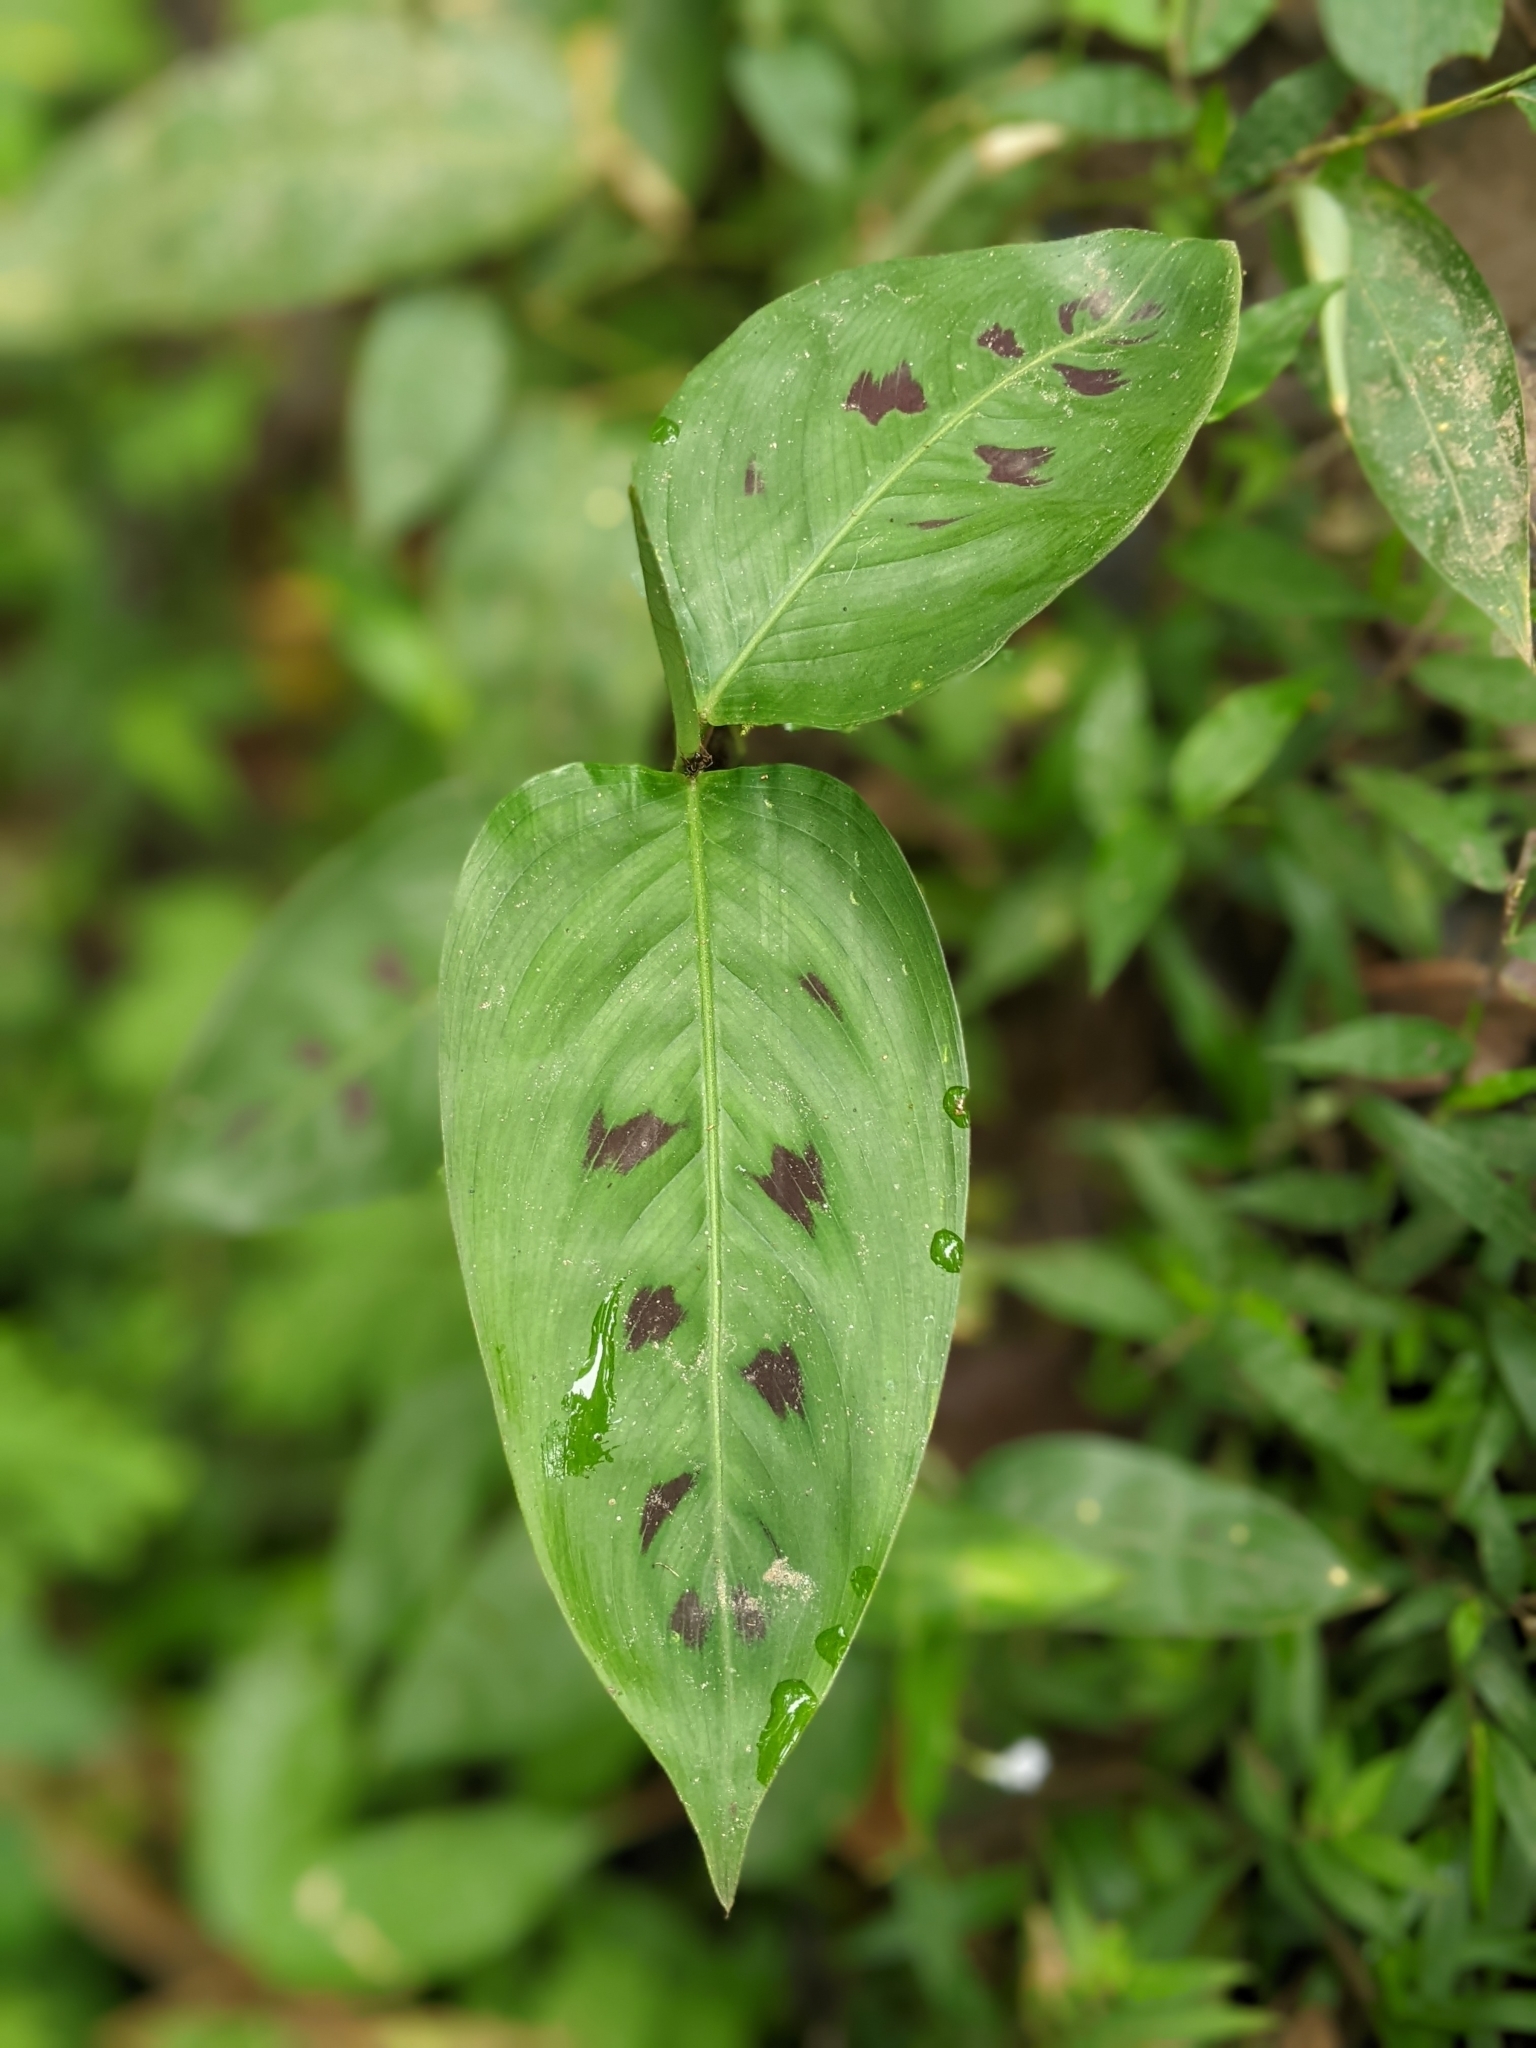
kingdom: Plantae
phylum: Tracheophyta
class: Liliopsida
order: Zingiberales
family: Marantaceae
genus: Goeppertia
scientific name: Goeppertia villosa
